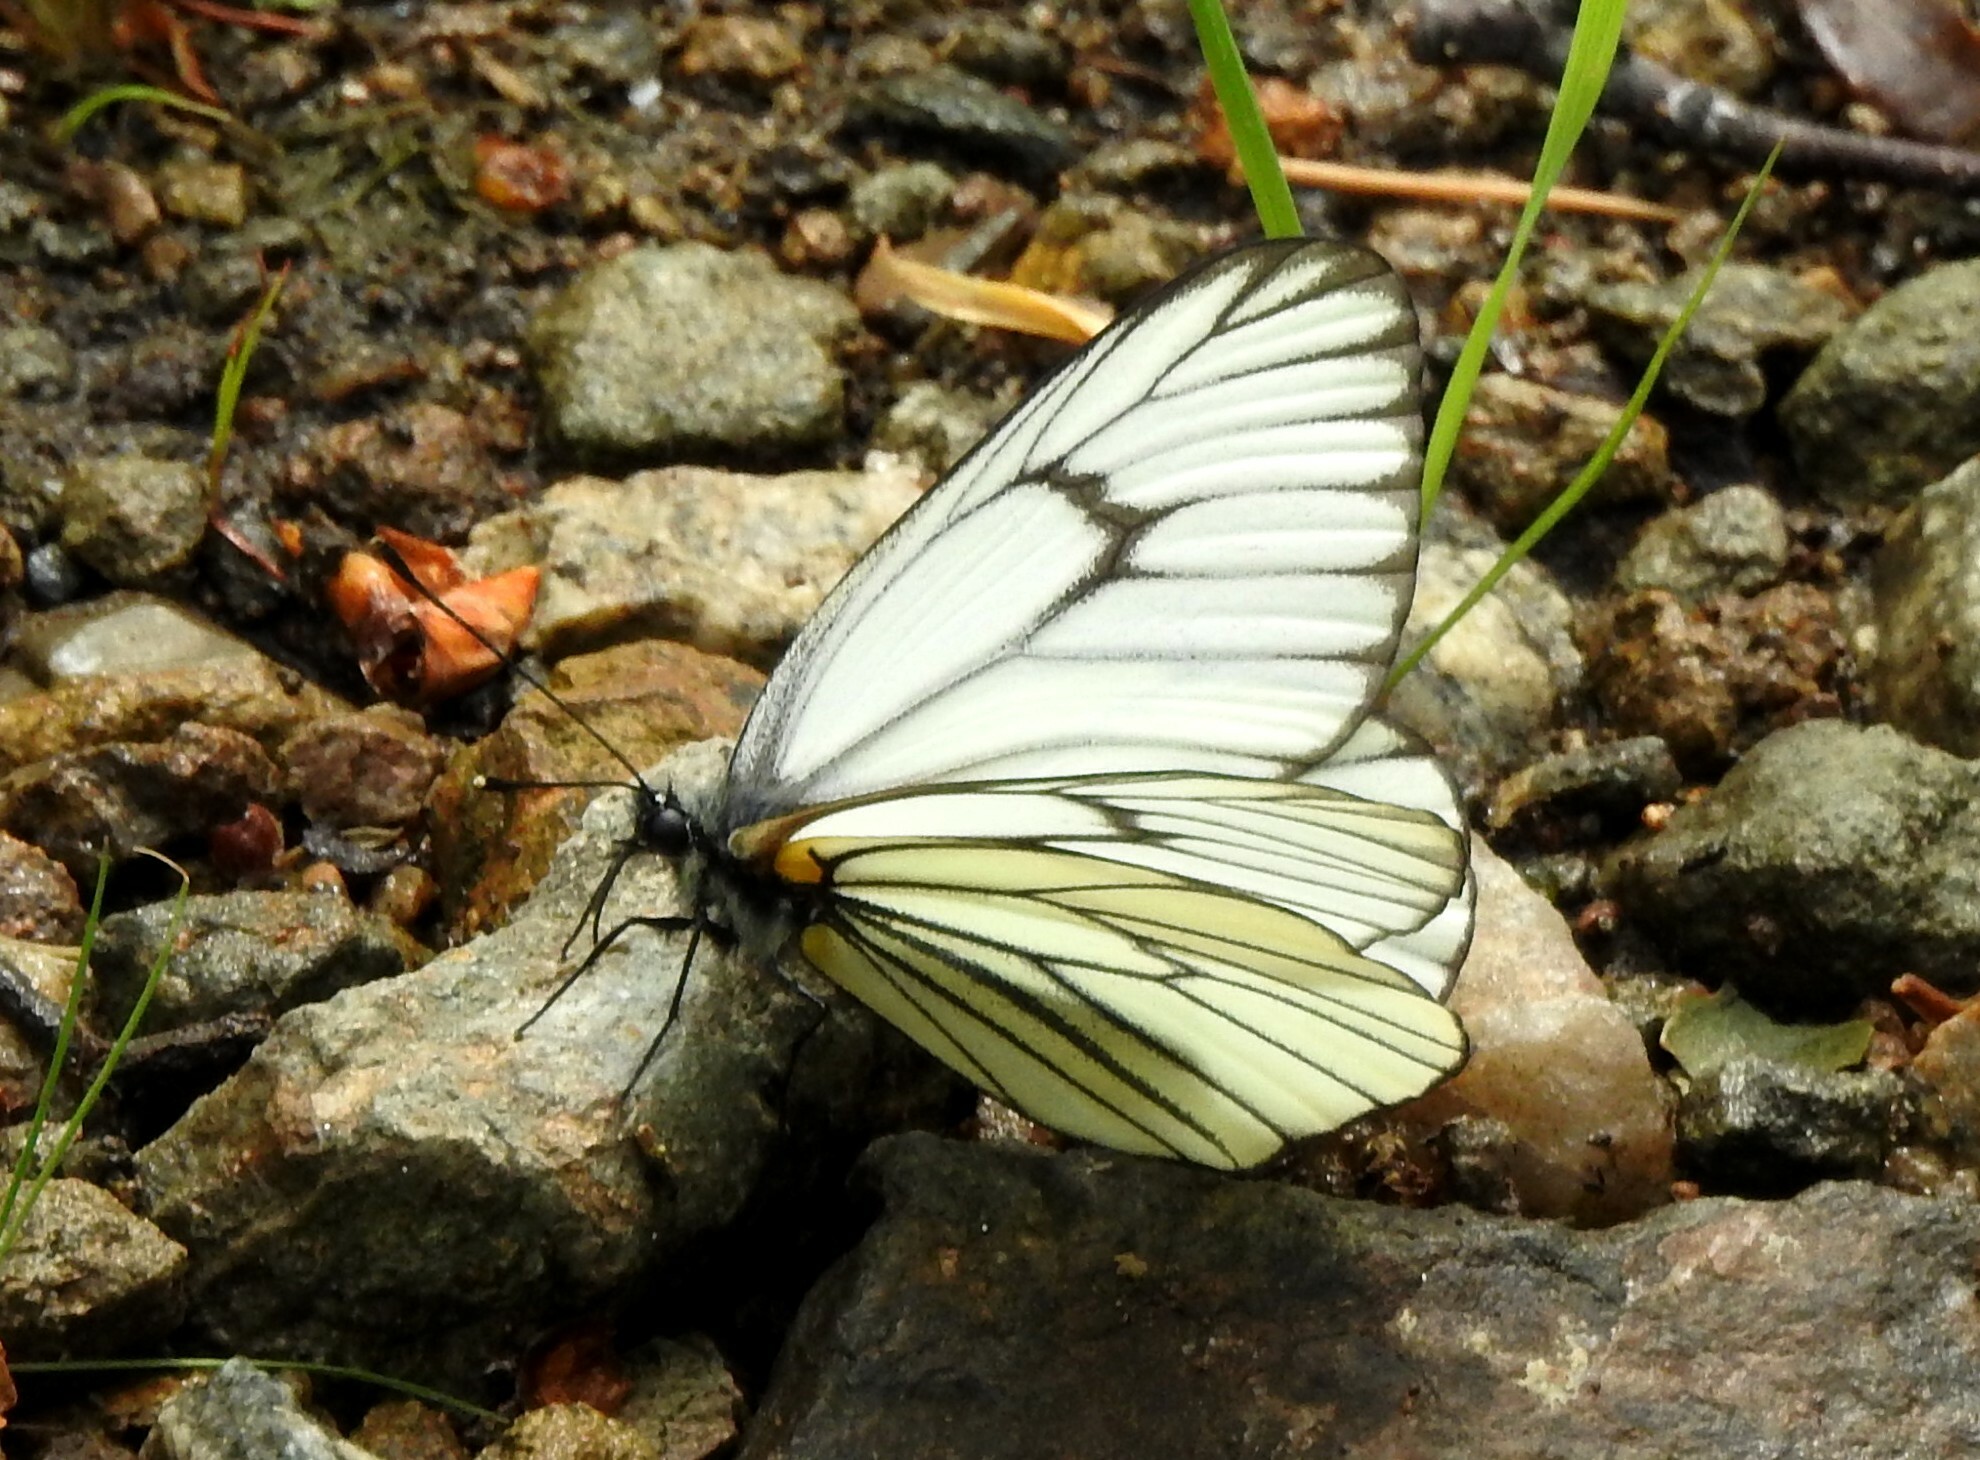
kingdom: Animalia
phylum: Arthropoda
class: Insecta
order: Lepidoptera
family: Pieridae
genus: Aporia
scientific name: Aporia hippia
